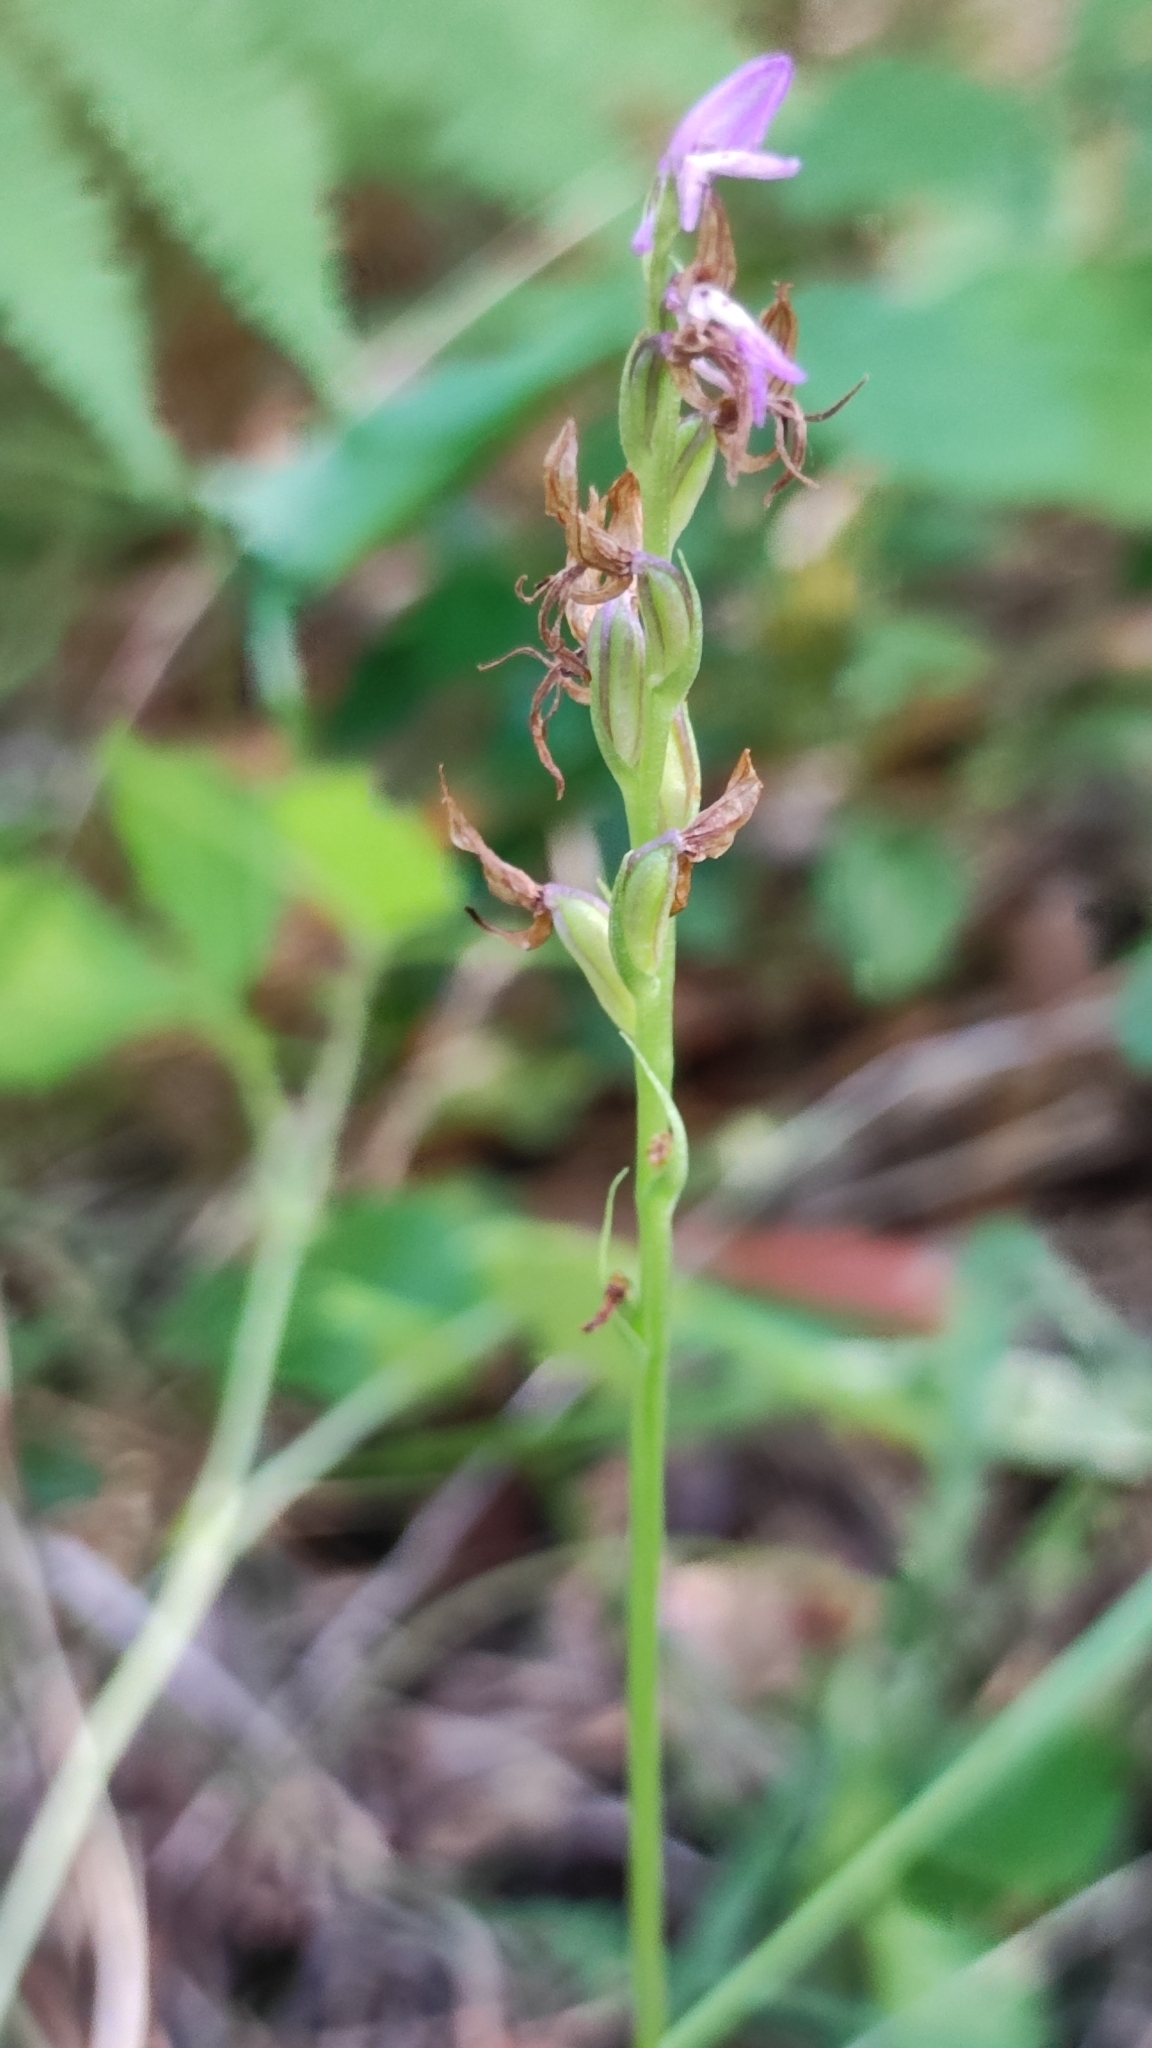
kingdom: Plantae
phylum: Tracheophyta
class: Liliopsida
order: Asparagales
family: Orchidaceae
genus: Hemipilia
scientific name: Hemipilia cucullata
